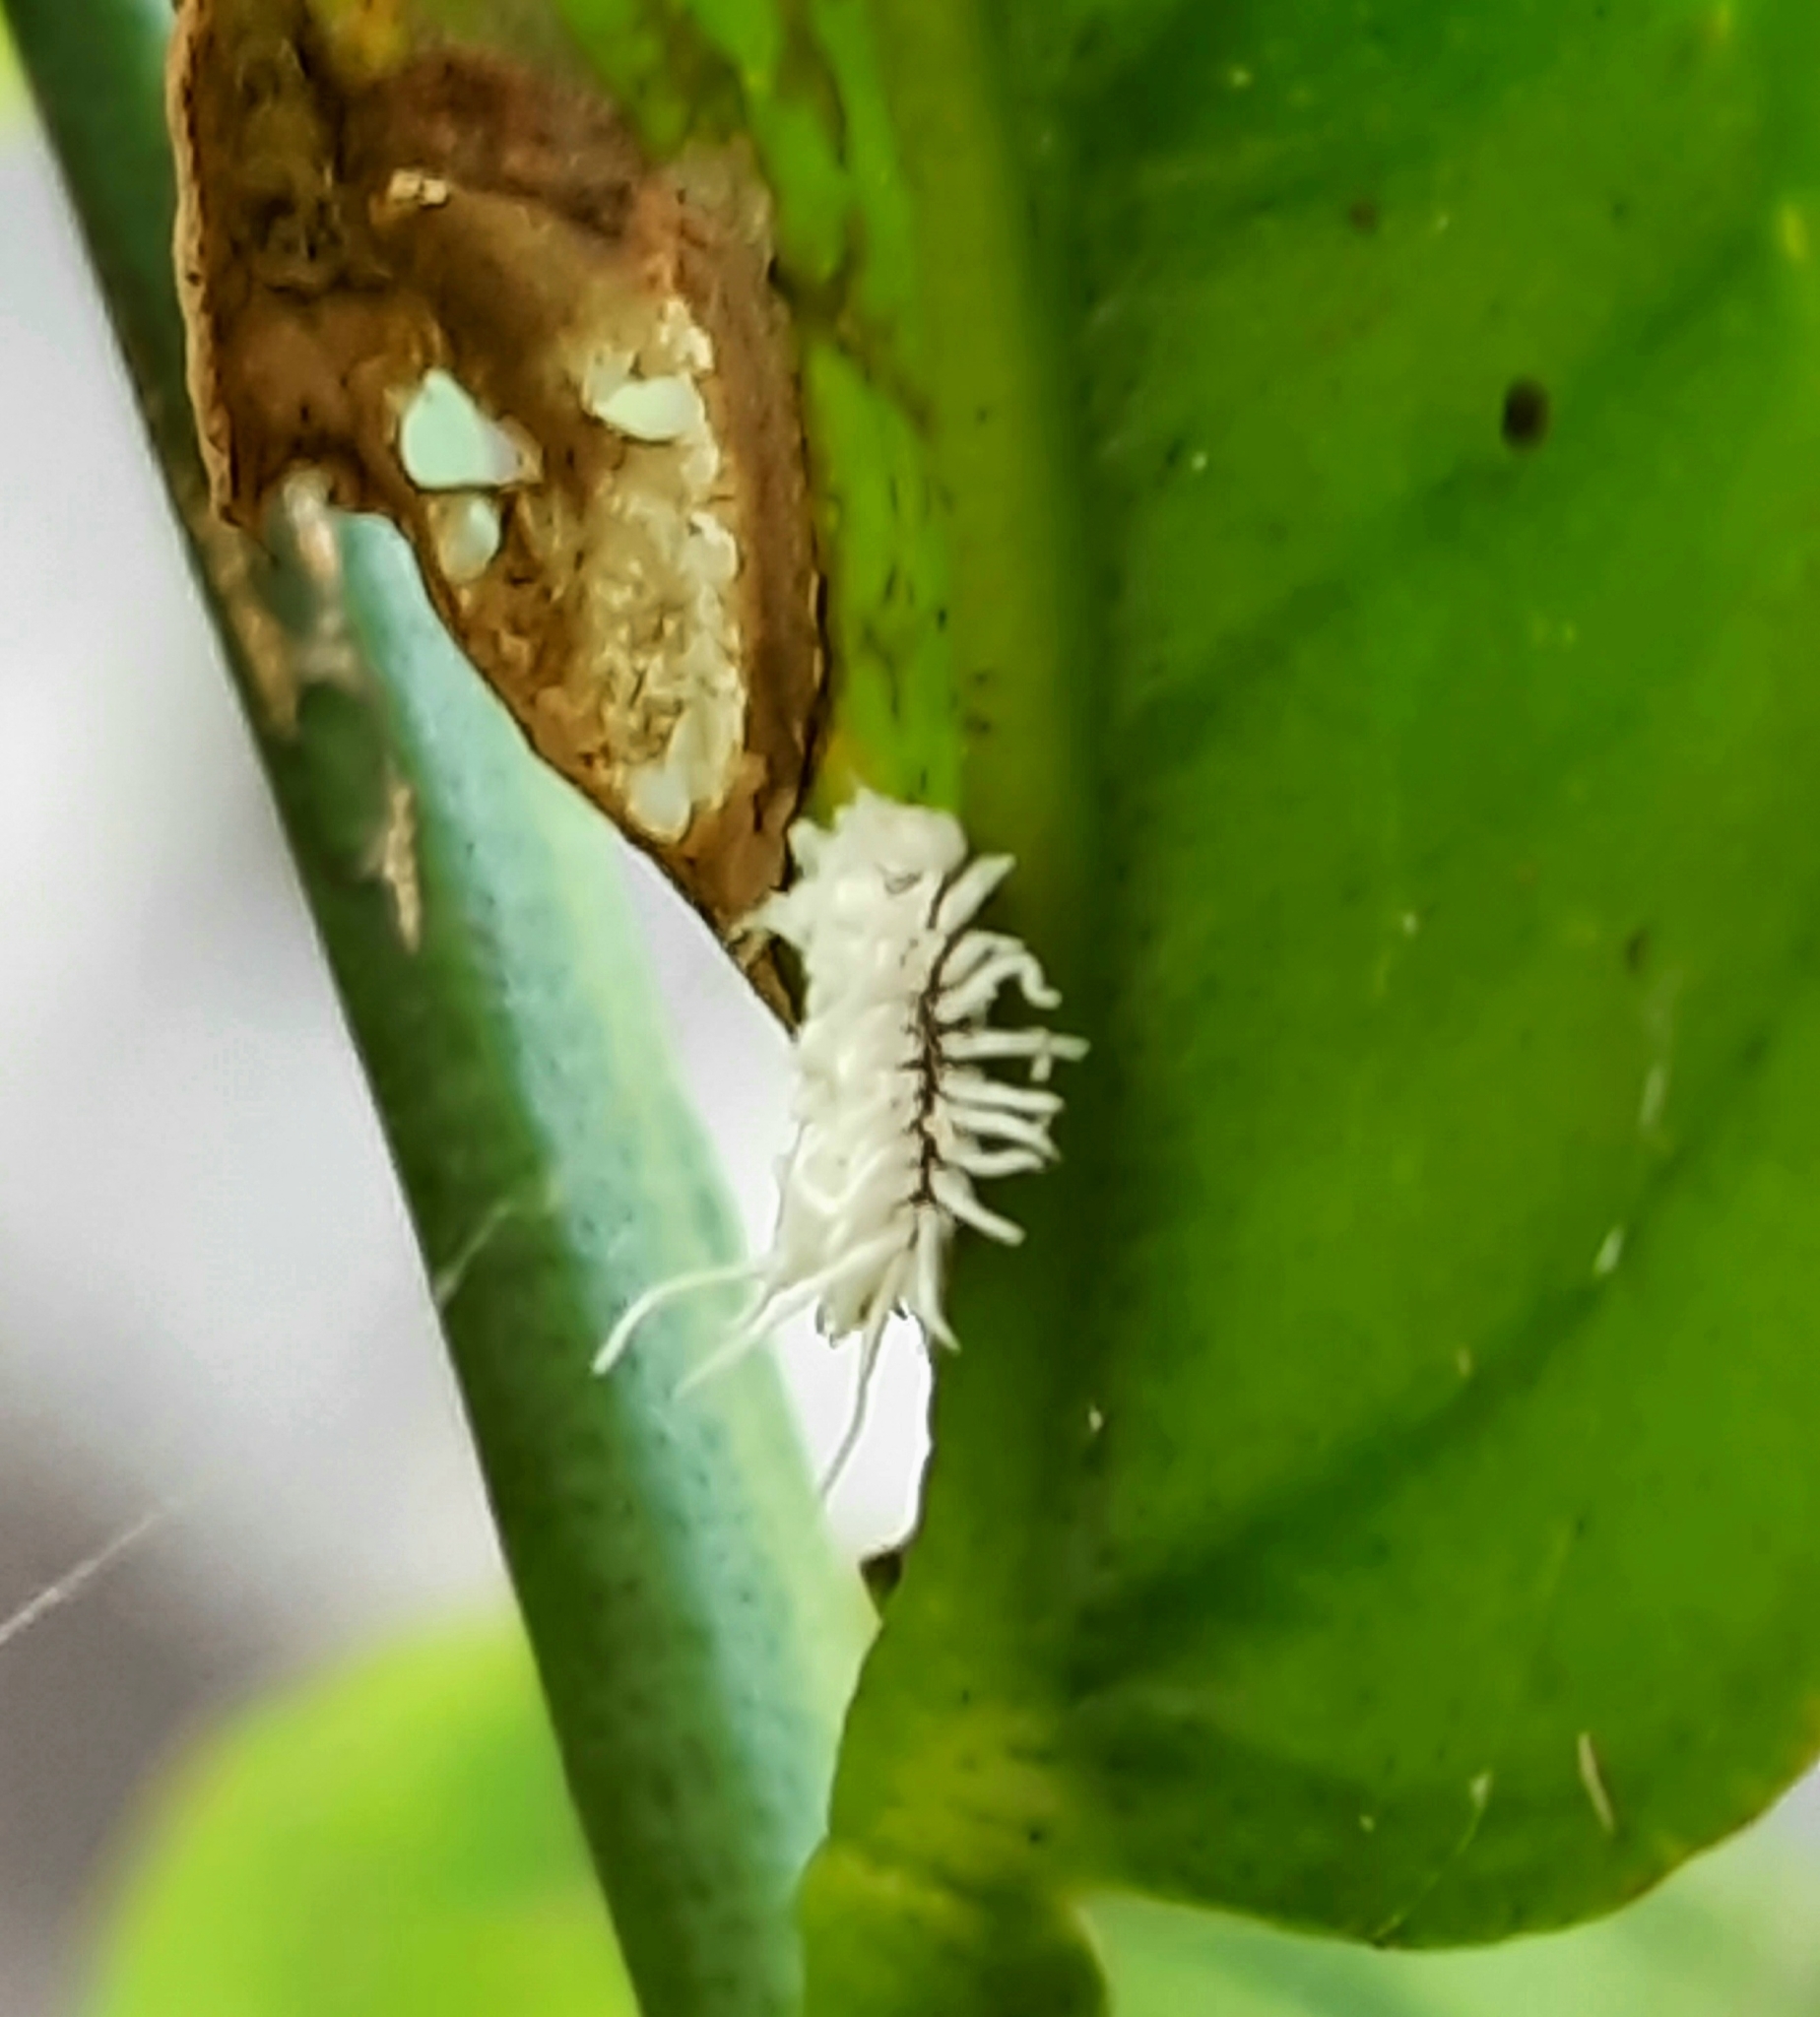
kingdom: Animalia
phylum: Arthropoda
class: Insecta
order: Coleoptera
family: Coccinellidae
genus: Cryptolaemus
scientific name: Cryptolaemus montrouzieri
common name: Mealybug destroyer
